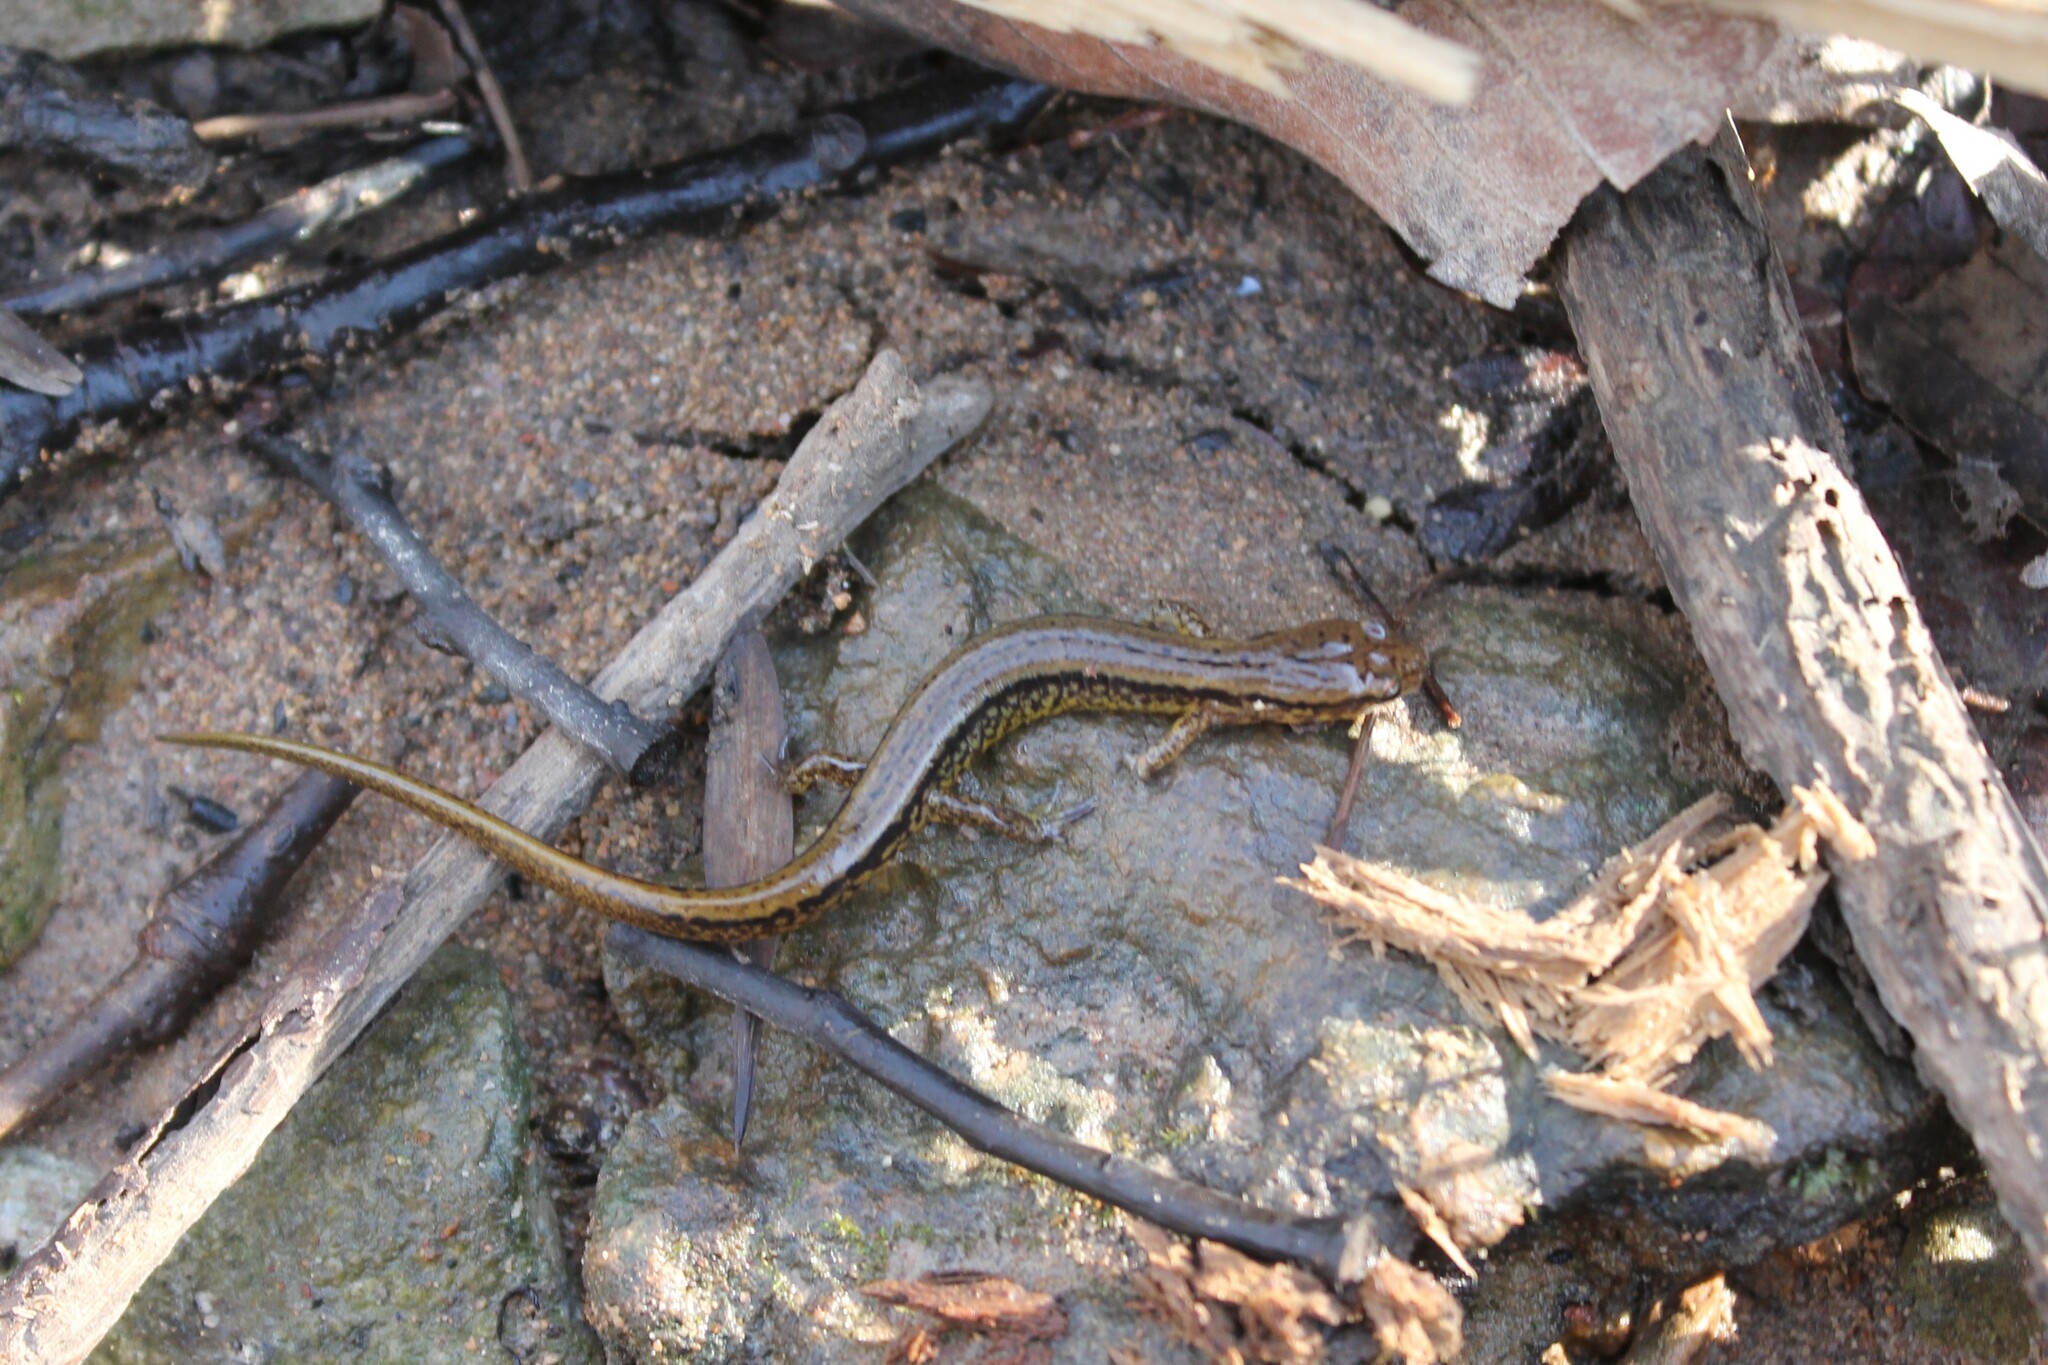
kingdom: Animalia
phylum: Chordata
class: Amphibia
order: Caudata
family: Plethodontidae
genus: Eurycea
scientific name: Eurycea cirrigera
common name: Southern two-lined salamander
